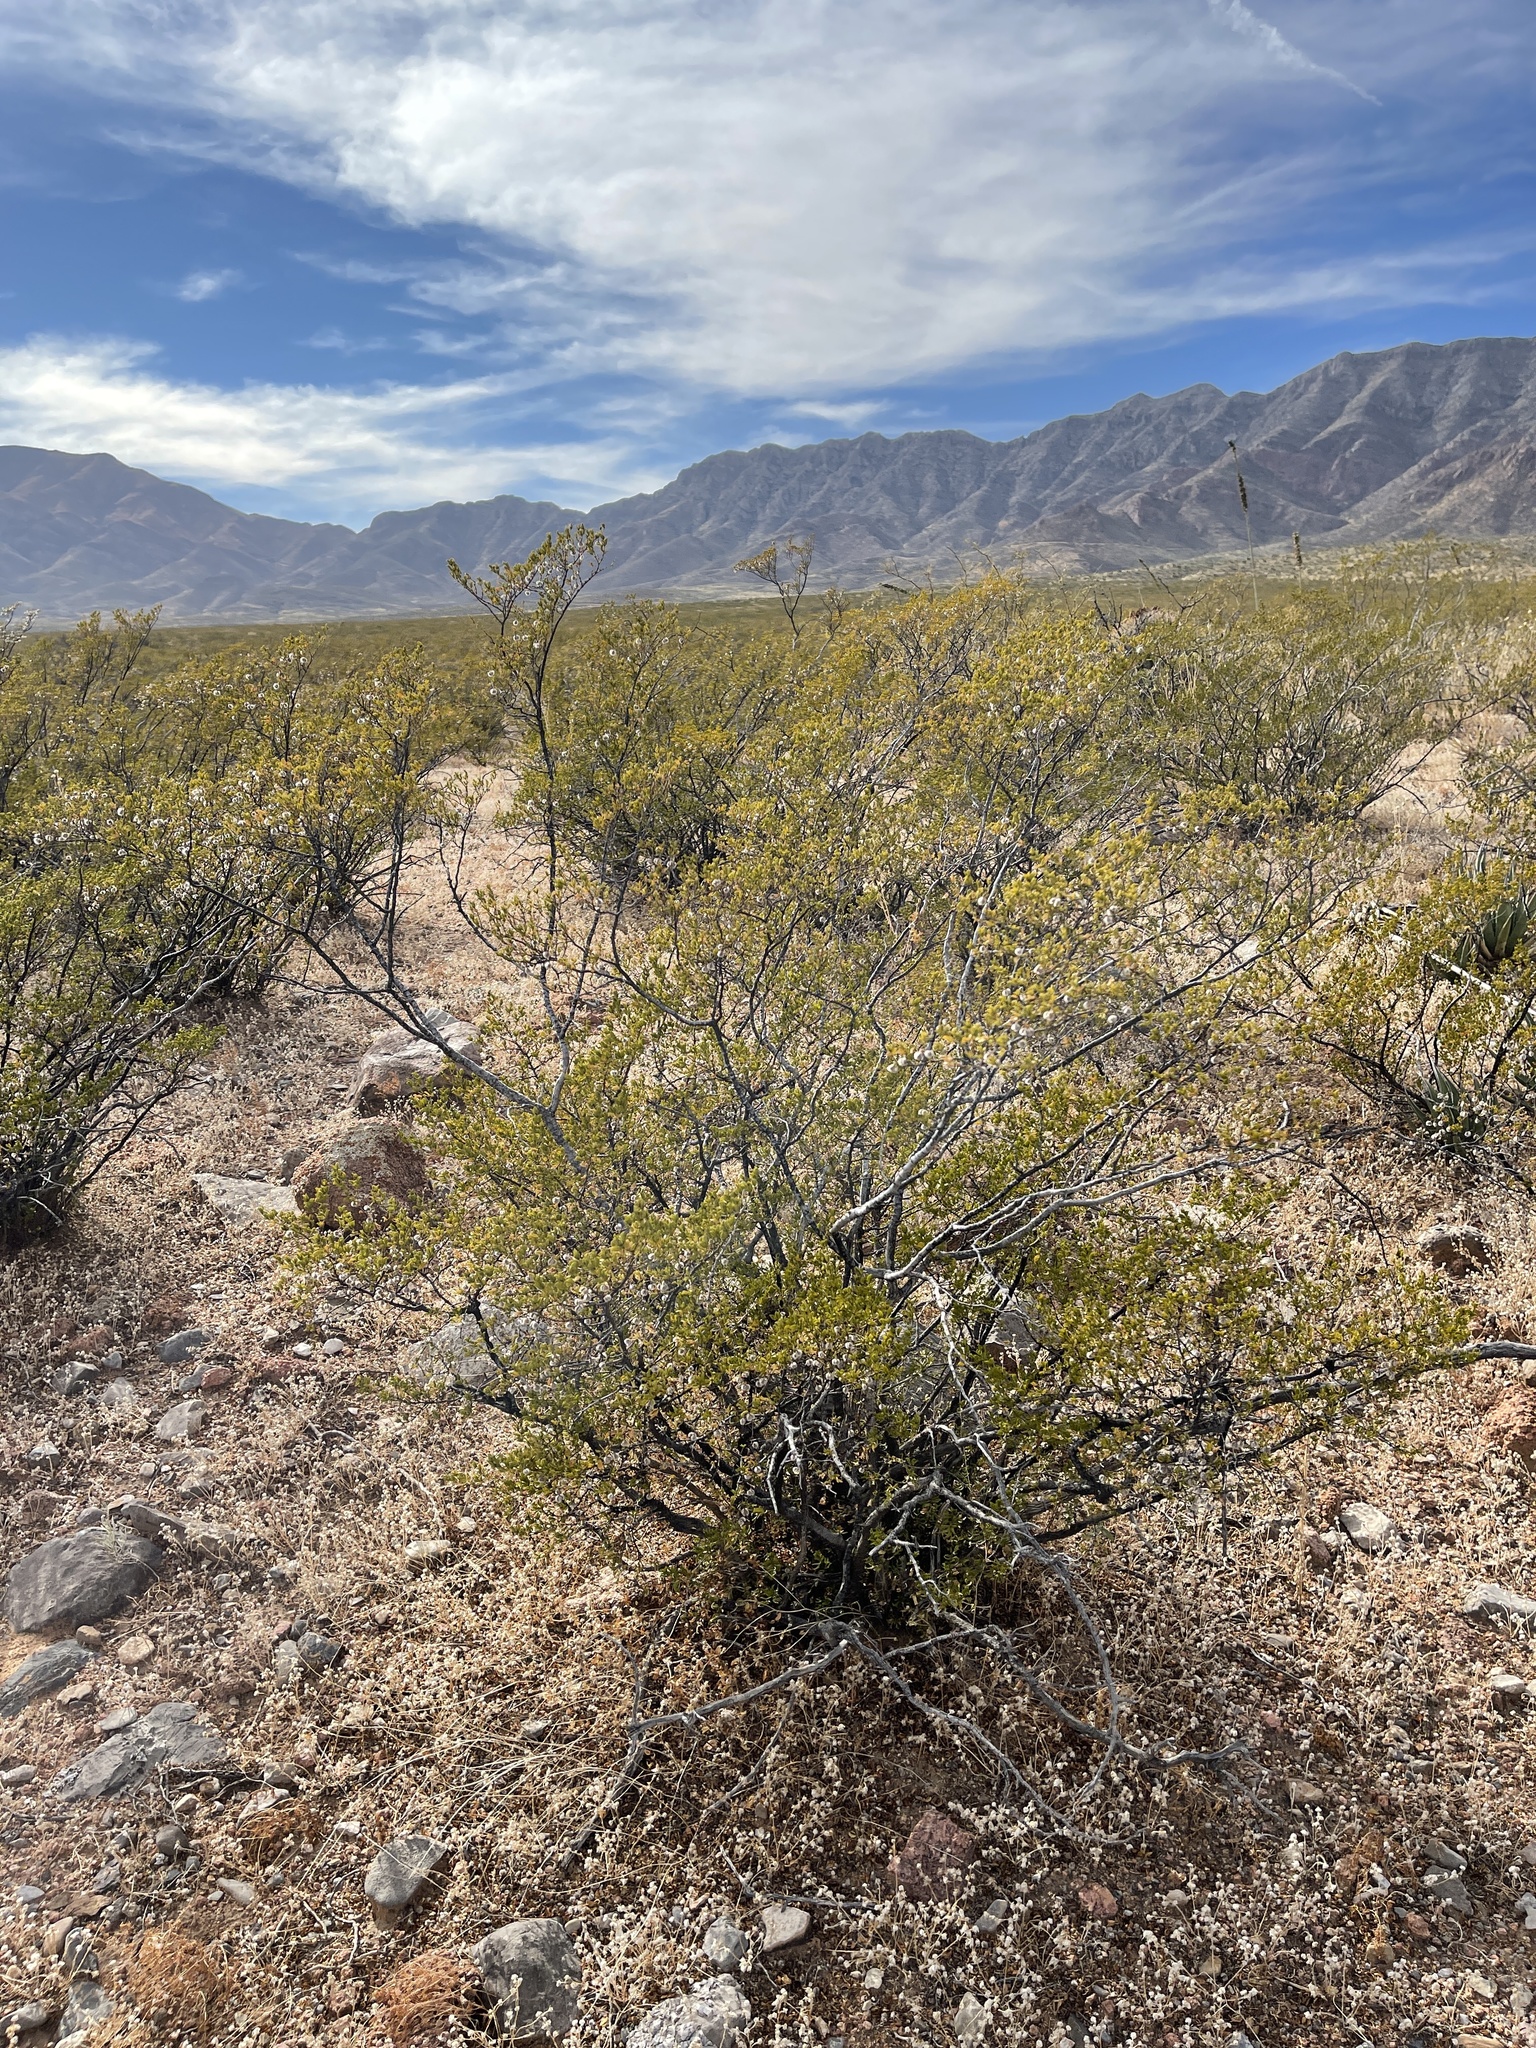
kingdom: Plantae
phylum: Tracheophyta
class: Magnoliopsida
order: Zygophyllales
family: Zygophyllaceae
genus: Larrea
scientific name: Larrea tridentata
